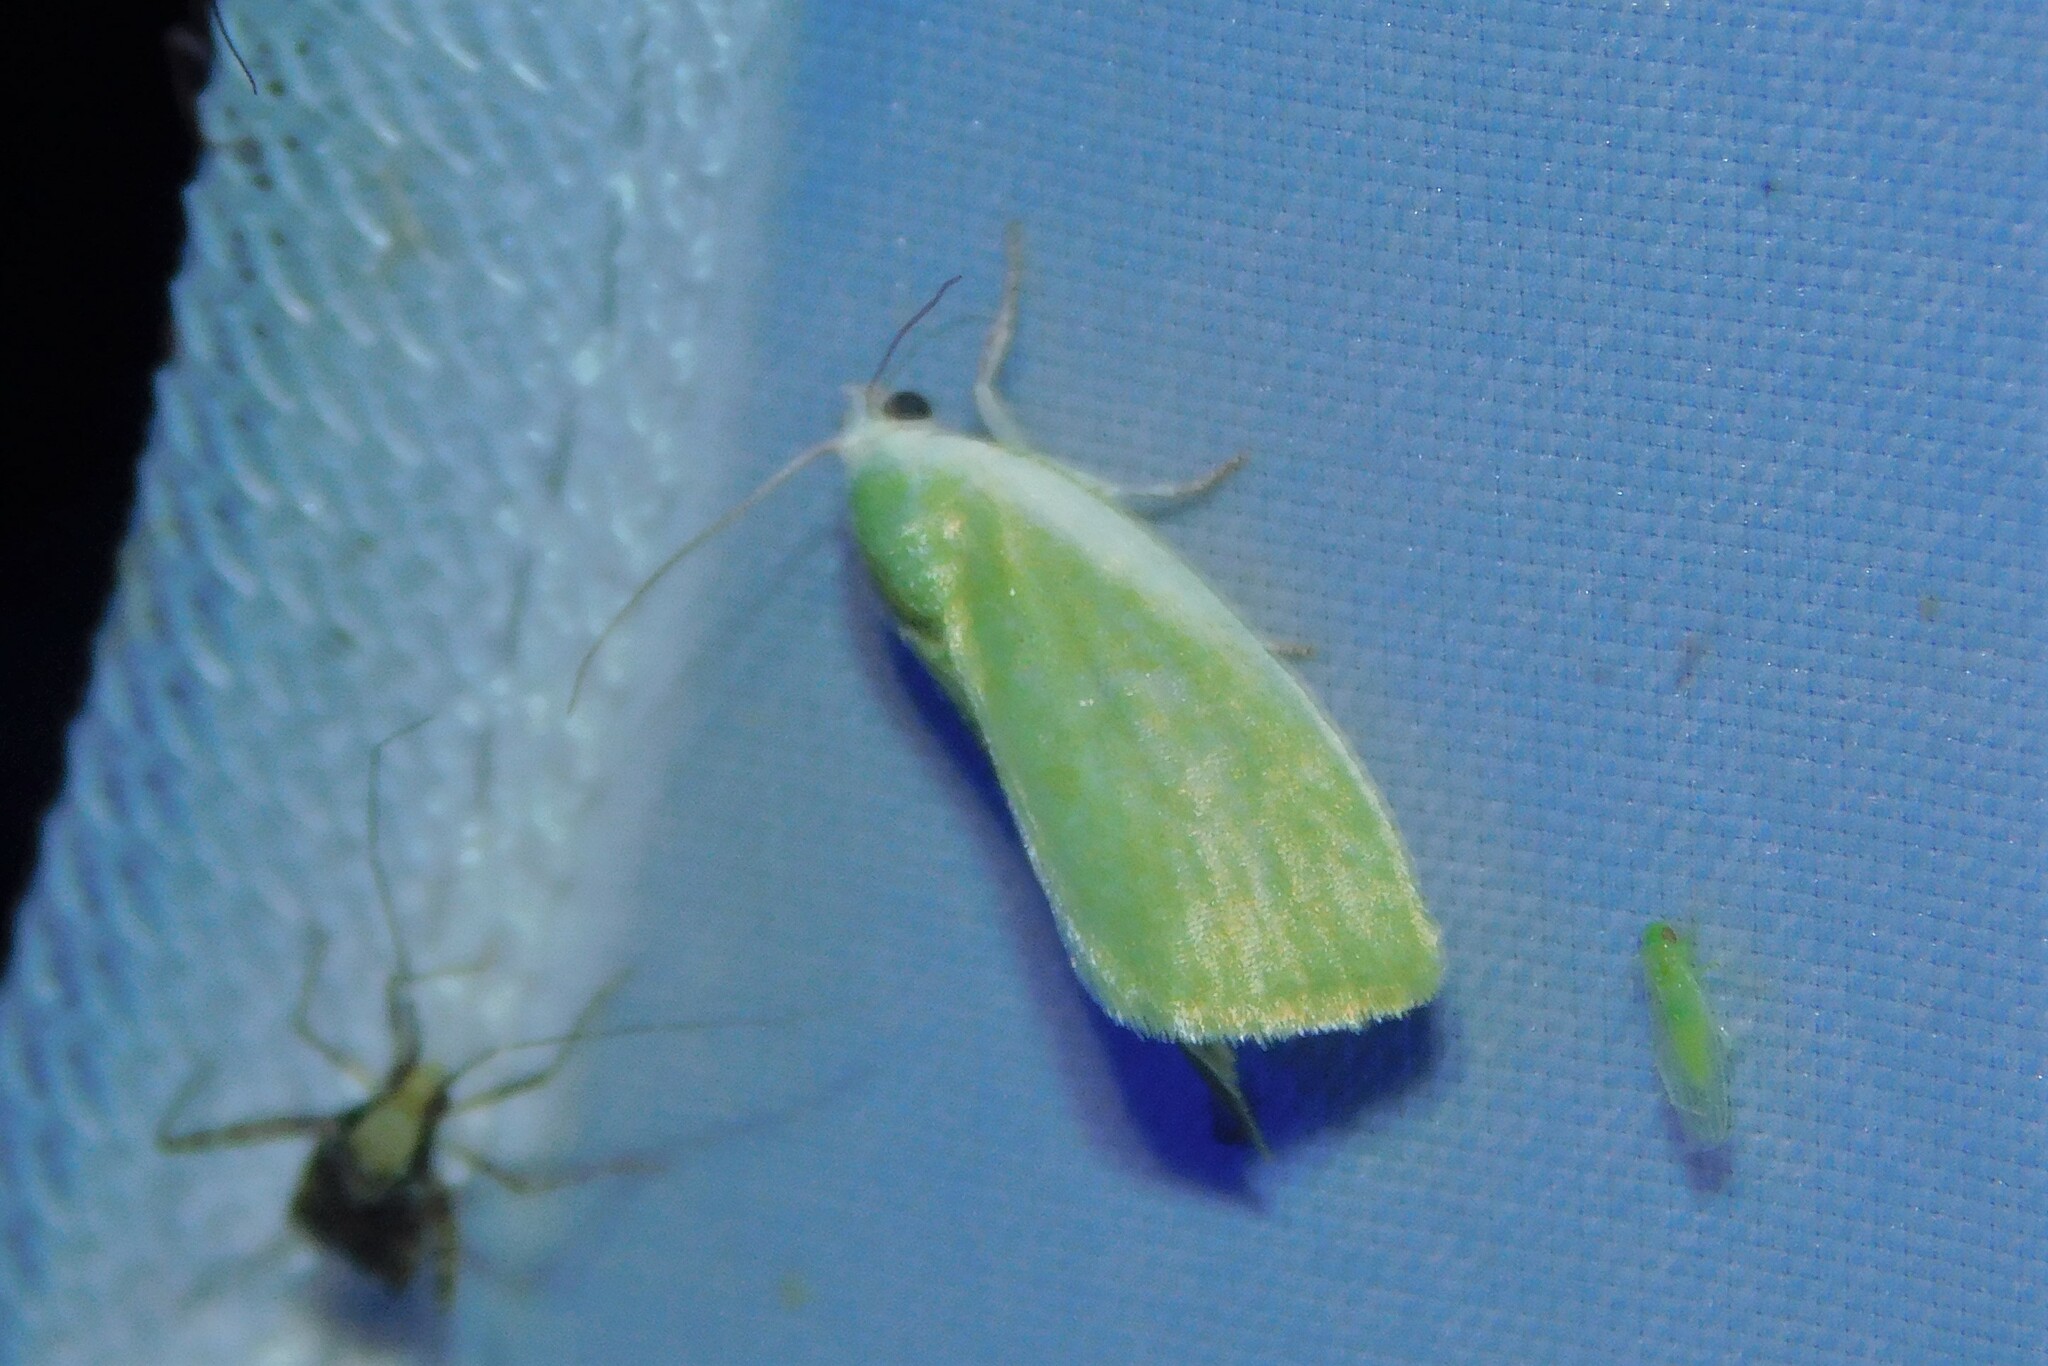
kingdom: Animalia
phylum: Arthropoda
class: Insecta
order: Lepidoptera
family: Nolidae
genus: Earias
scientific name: Earias clorana
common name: Cream-bordered green pea
